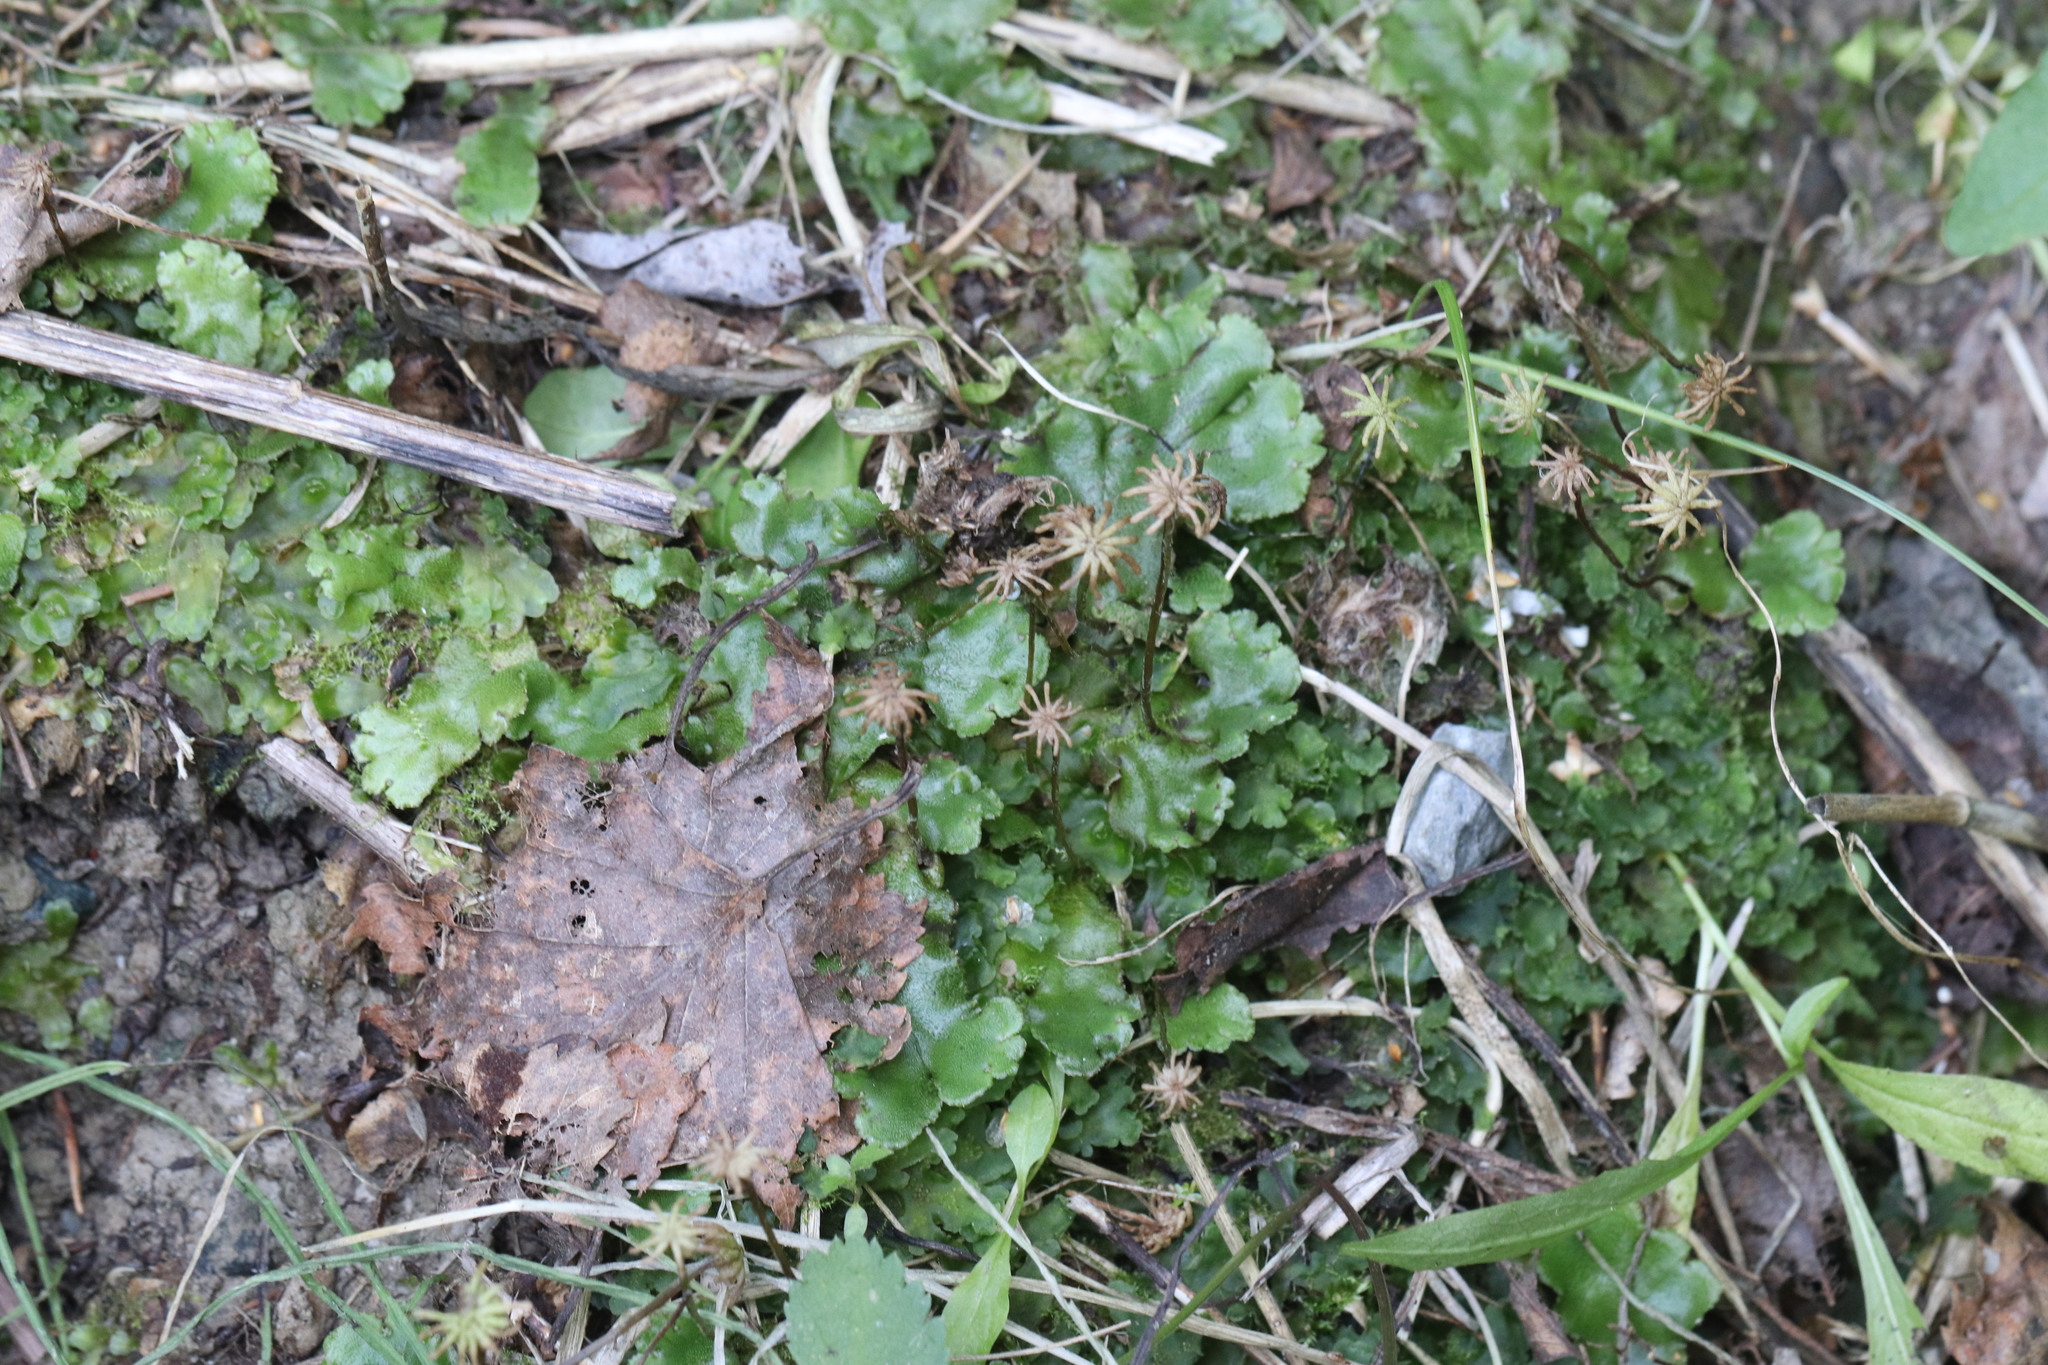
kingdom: Plantae
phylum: Marchantiophyta
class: Marchantiopsida
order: Marchantiales
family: Marchantiaceae
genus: Marchantia
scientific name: Marchantia polymorpha
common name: Common liverwort
